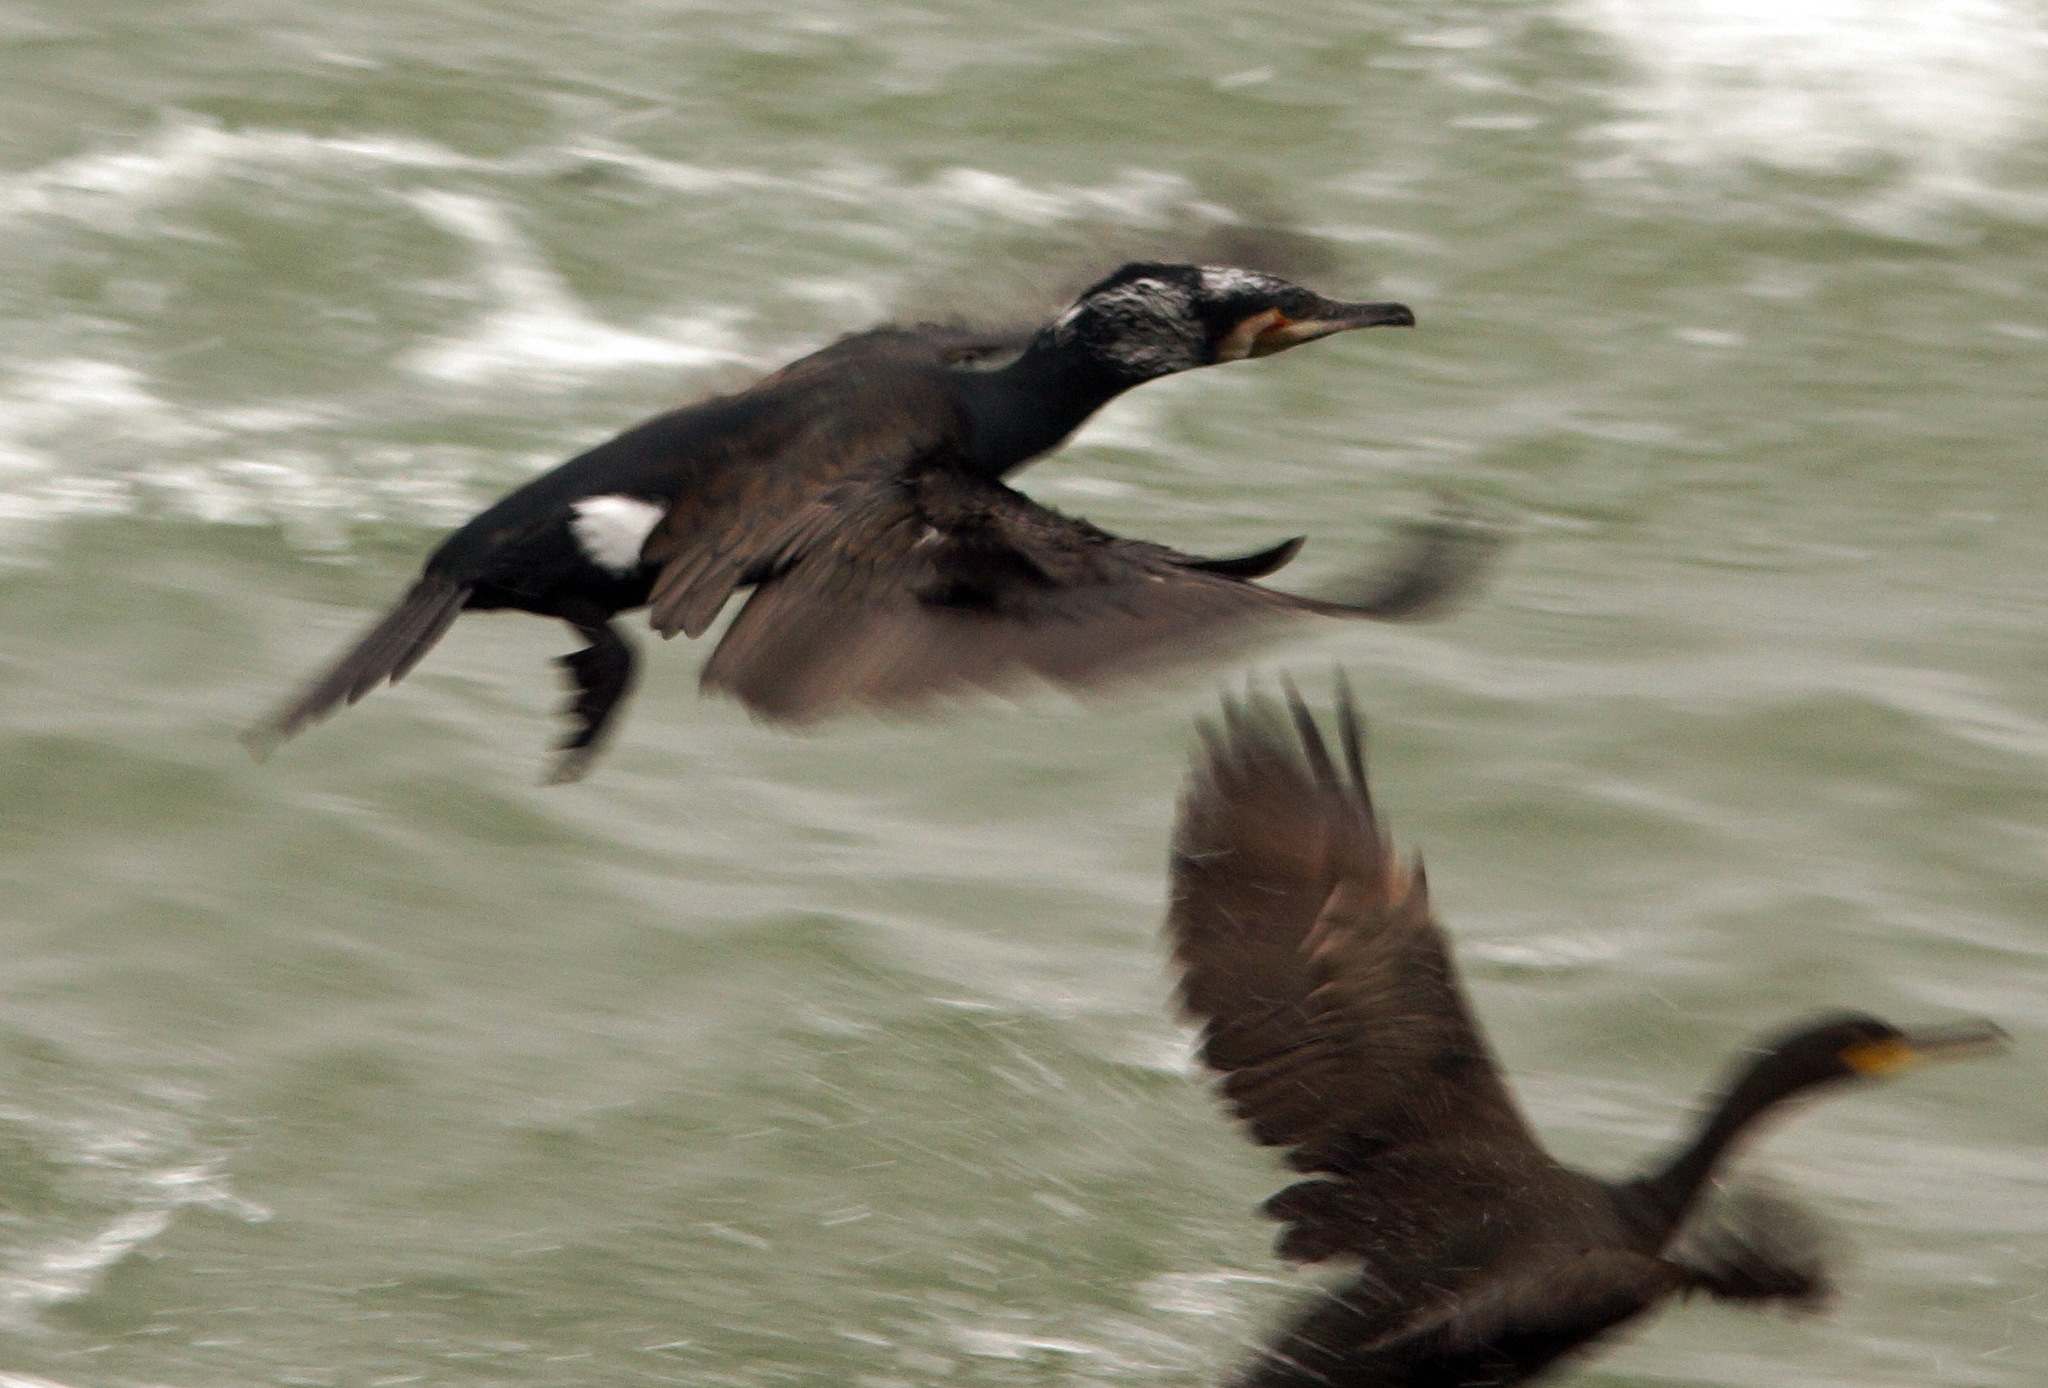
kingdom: Animalia
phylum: Chordata
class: Aves
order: Suliformes
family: Phalacrocoracidae
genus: Phalacrocorax
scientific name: Phalacrocorax carbo
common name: Great cormorant
